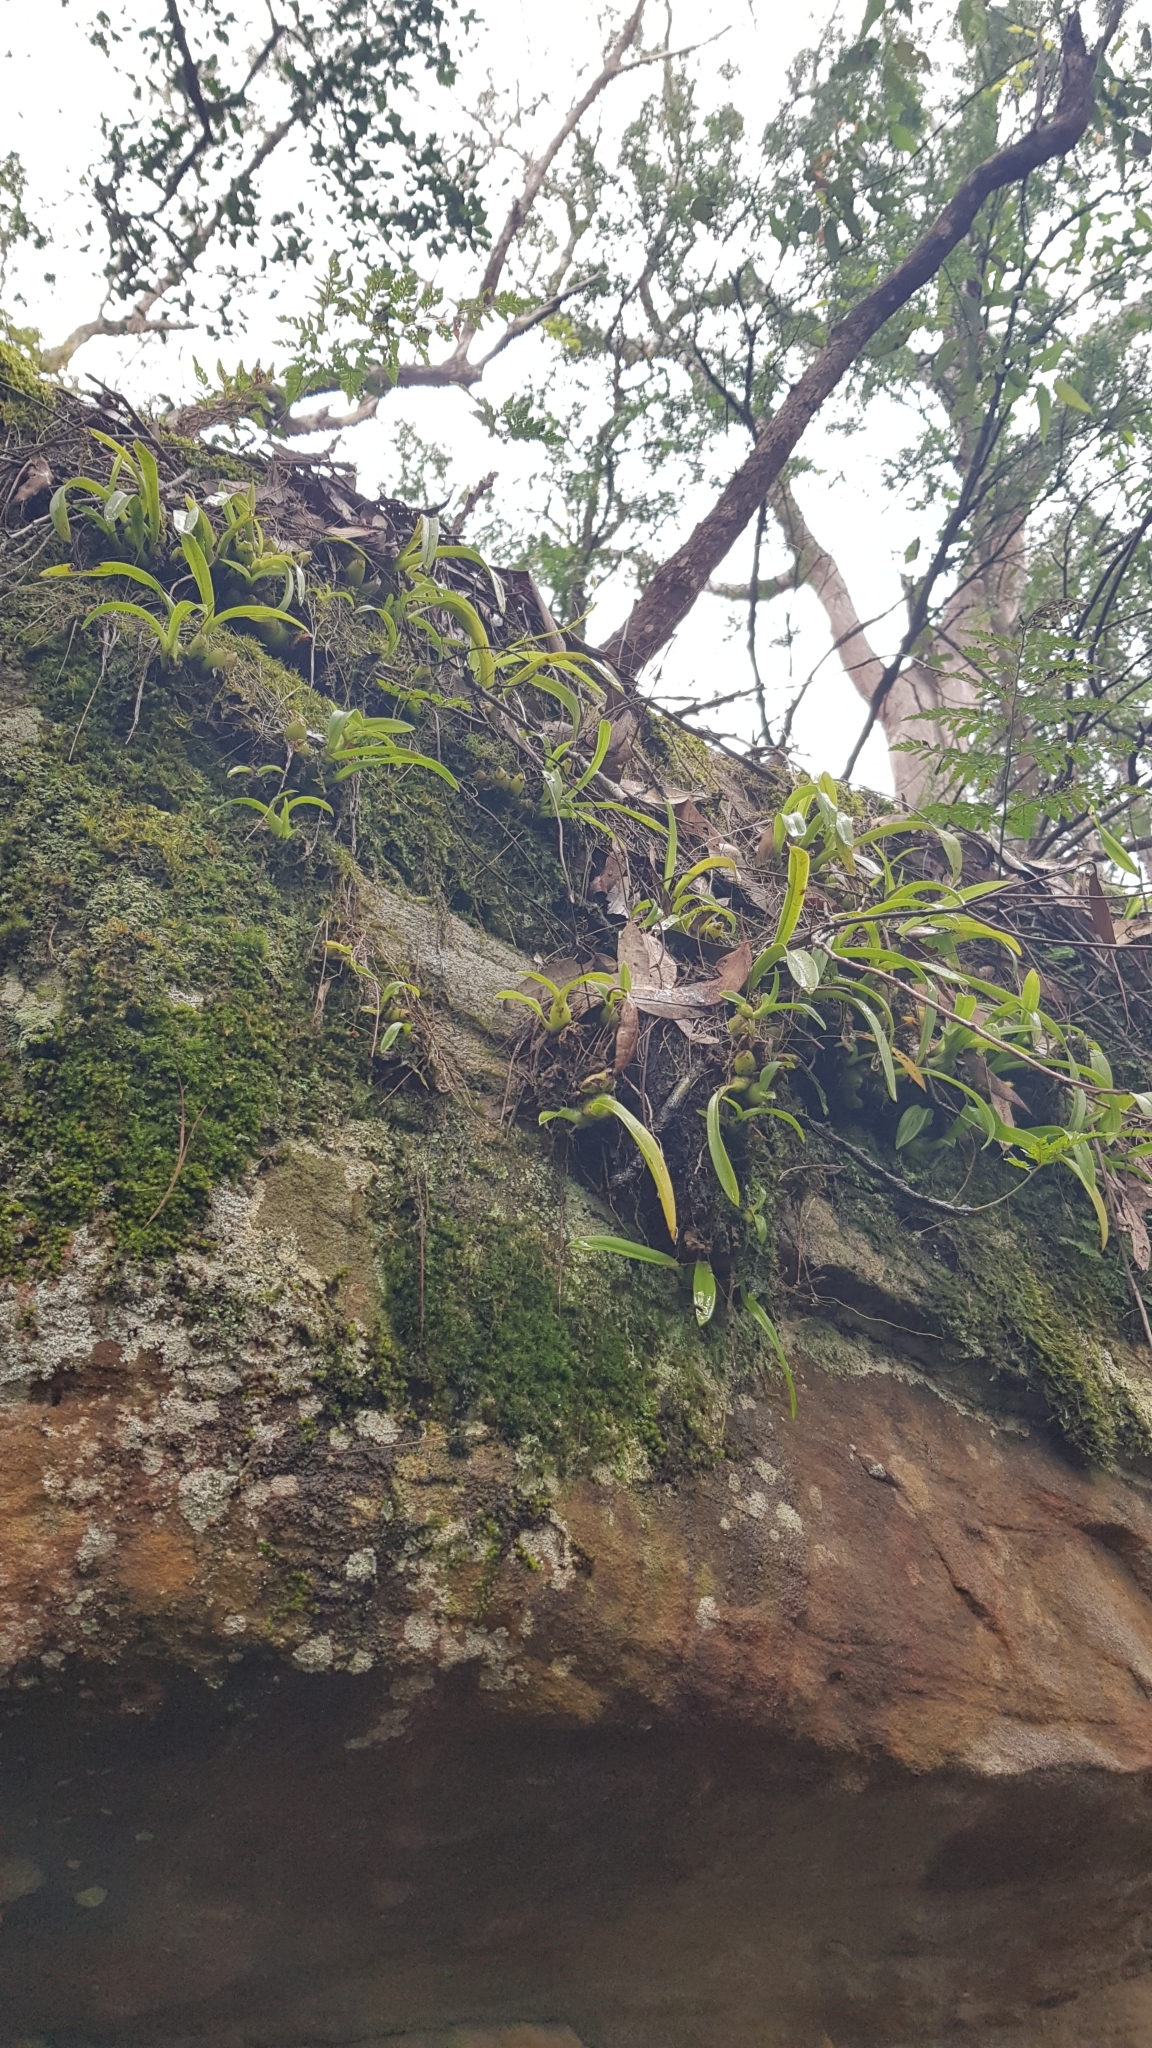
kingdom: Plantae
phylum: Tracheophyta
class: Liliopsida
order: Asparagales
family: Orchidaceae
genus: Liparis
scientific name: Liparis reflexa
